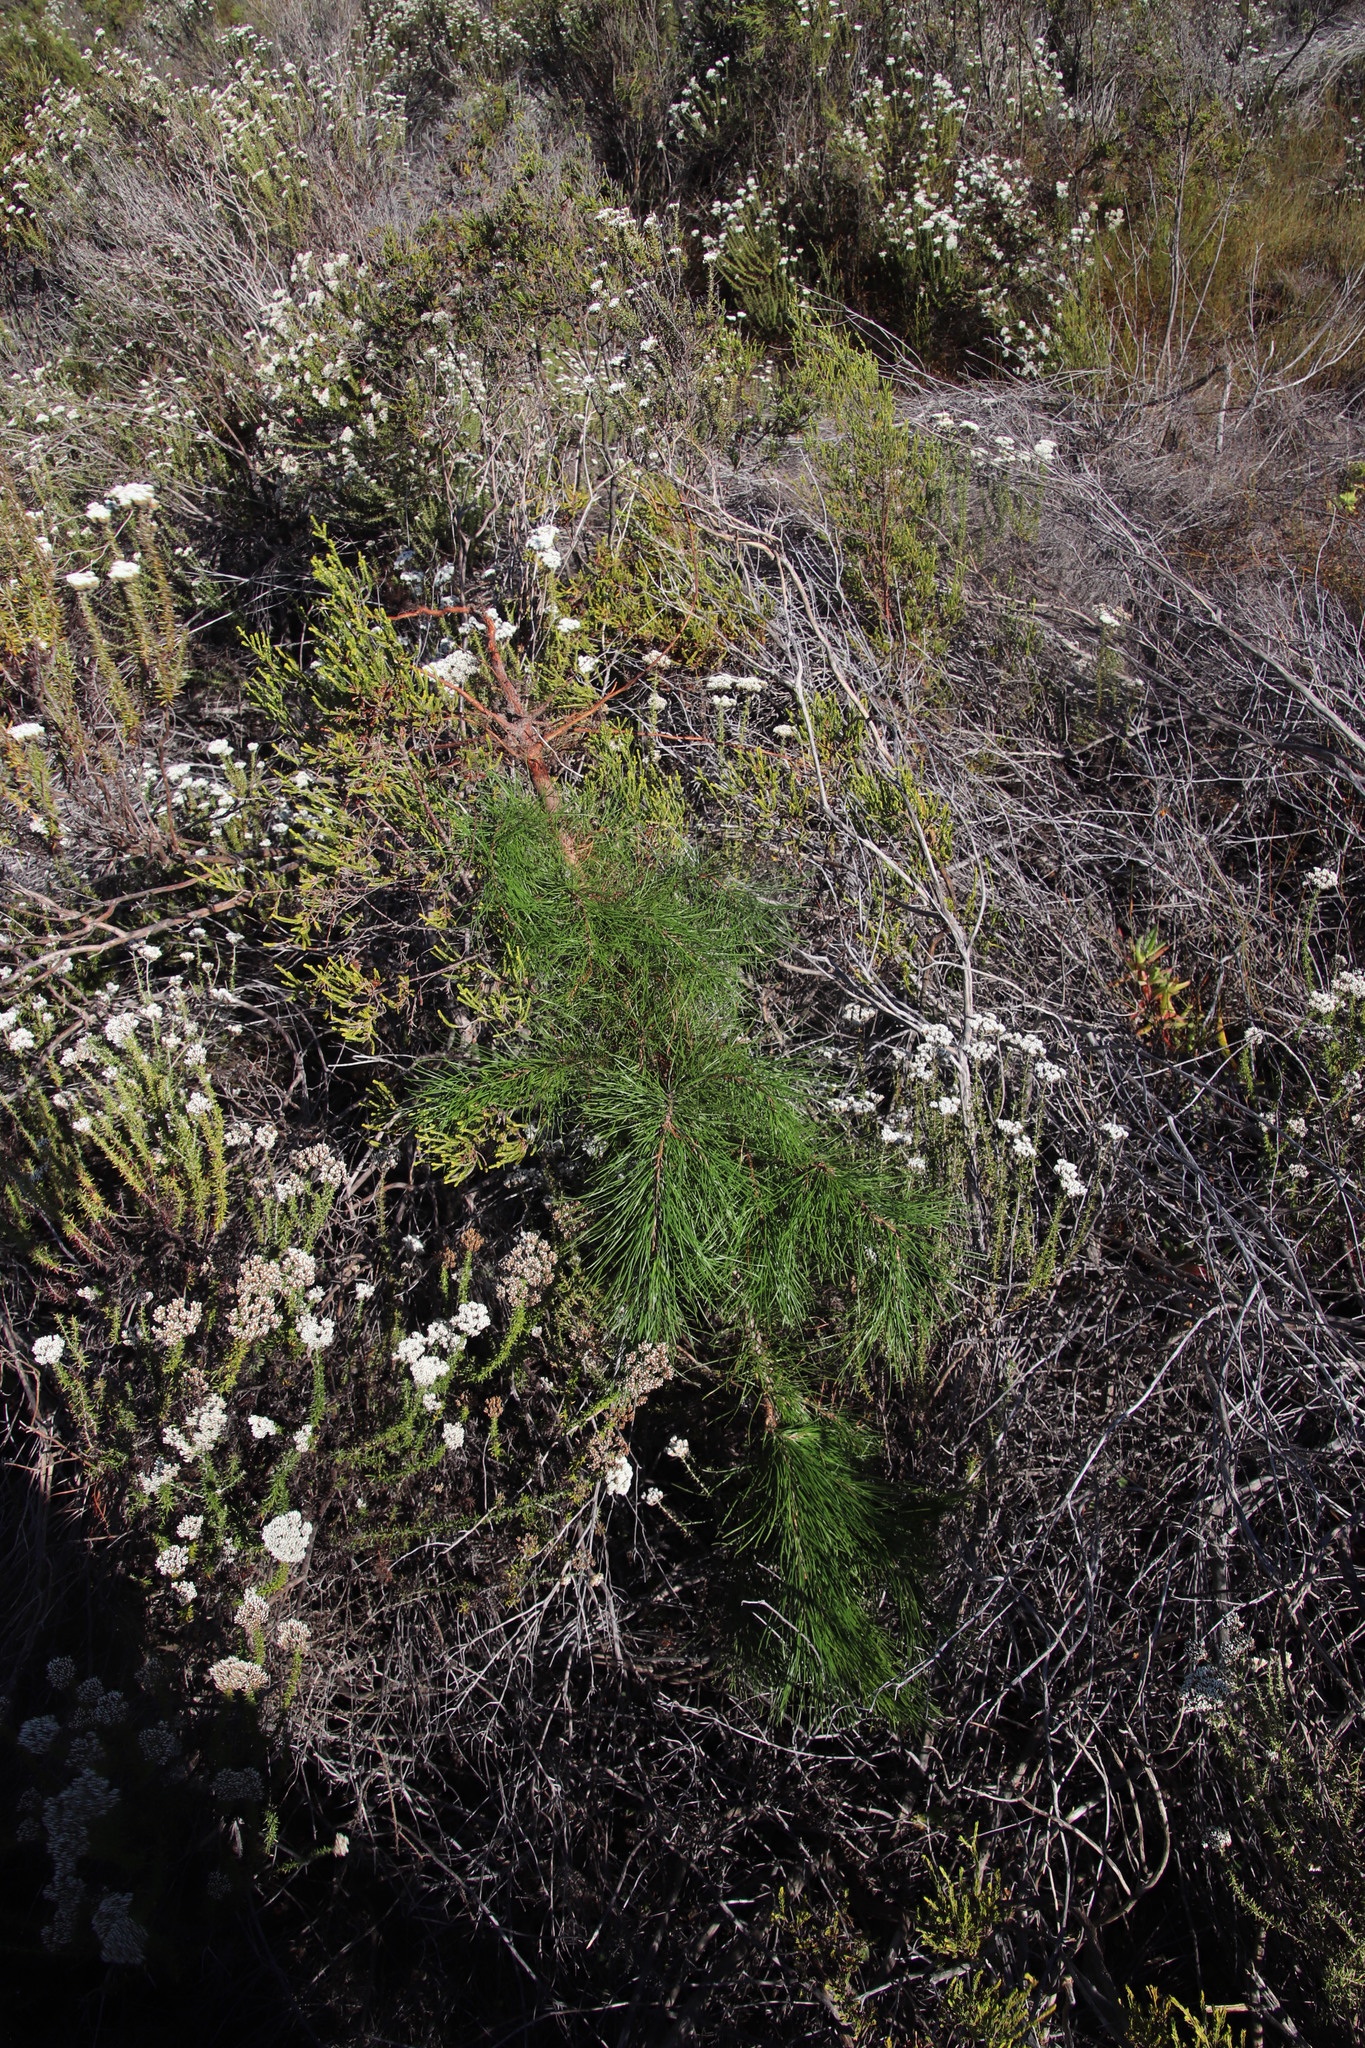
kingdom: Plantae
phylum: Tracheophyta
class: Pinopsida
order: Pinales
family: Pinaceae
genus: Pinus
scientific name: Pinus radiata
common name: Monterey pine
